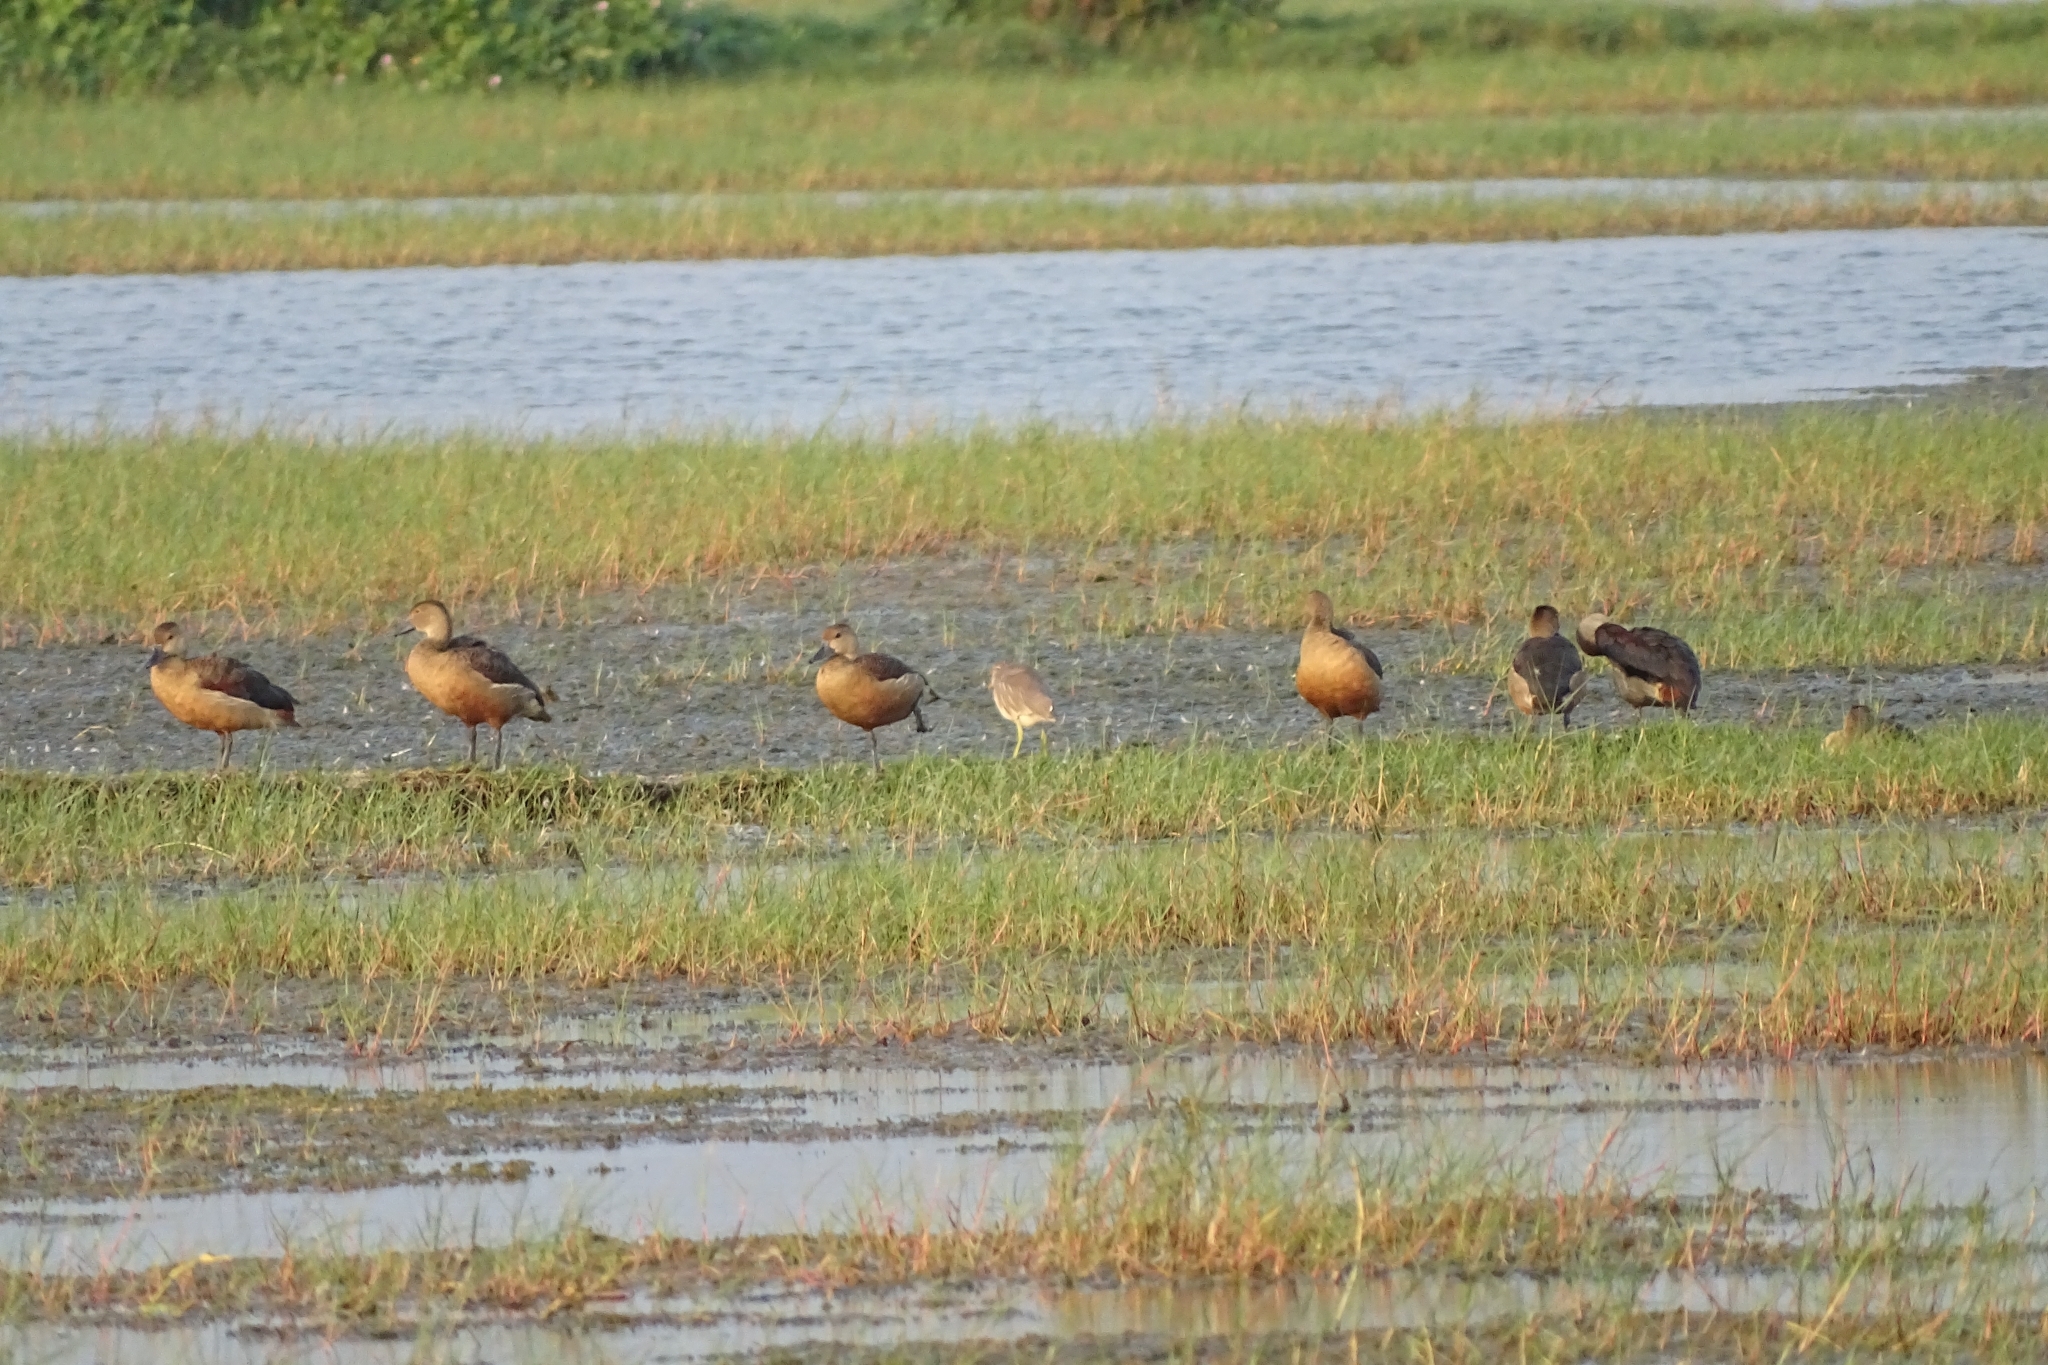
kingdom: Animalia
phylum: Chordata
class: Aves
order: Anseriformes
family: Anatidae
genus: Dendrocygna
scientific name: Dendrocygna javanica
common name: Lesser whistling-duck
